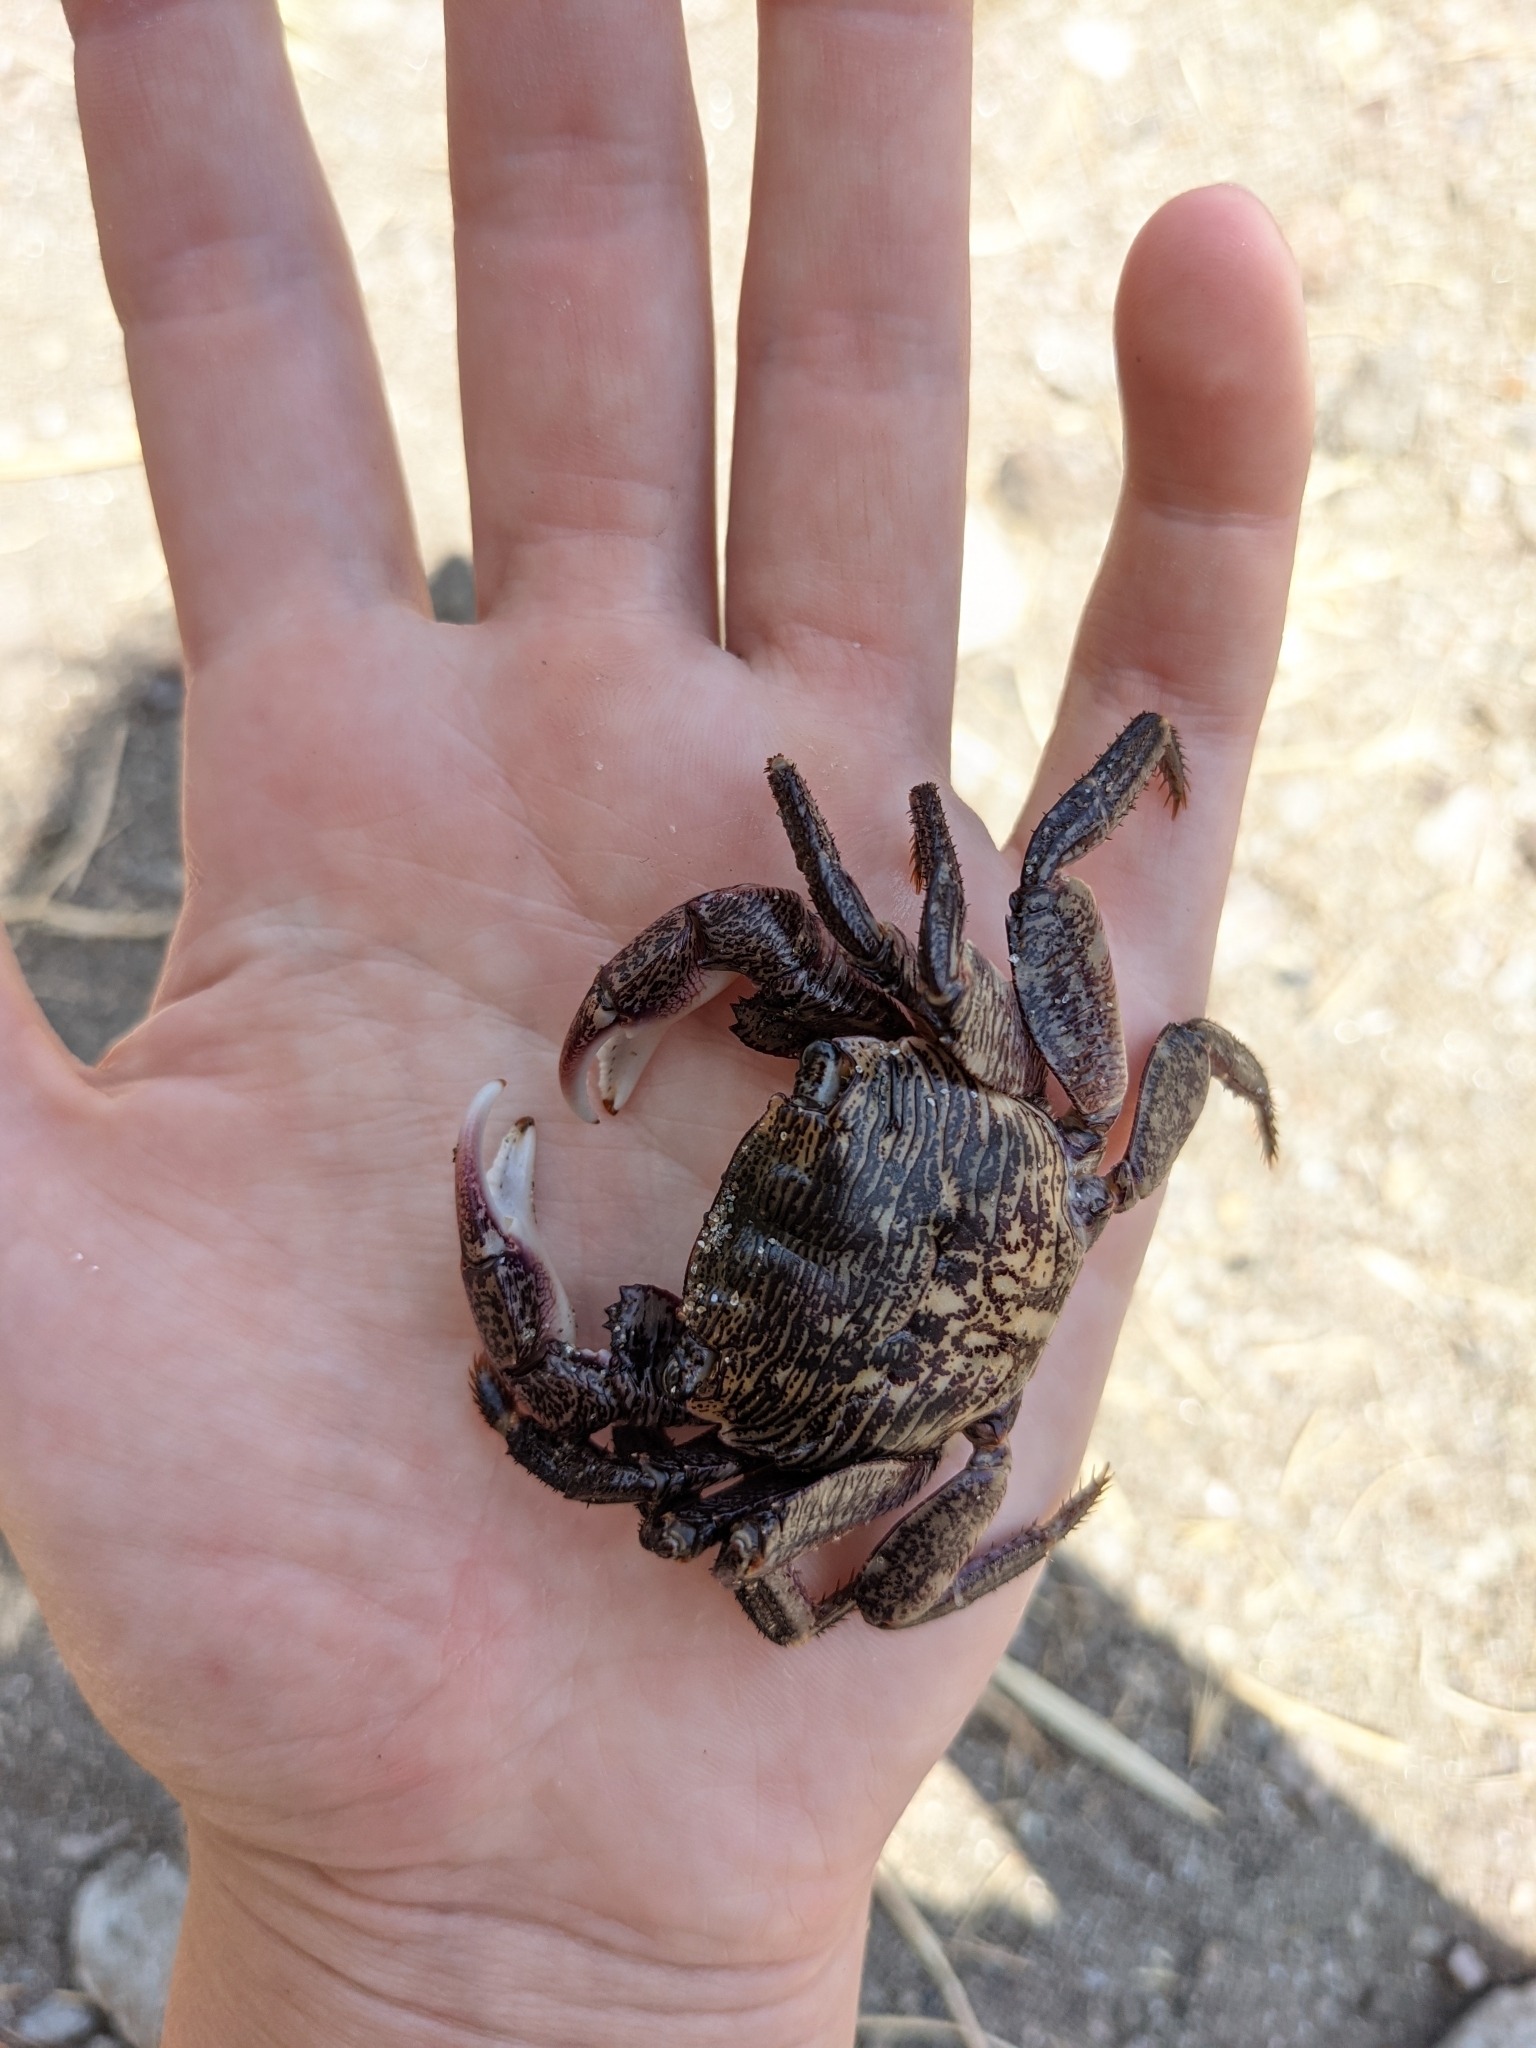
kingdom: Animalia
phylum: Arthropoda
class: Malacostraca
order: Decapoda
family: Grapsidae
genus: Pachygrapsus
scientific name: Pachygrapsus crassipes
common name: Striped shore crab
